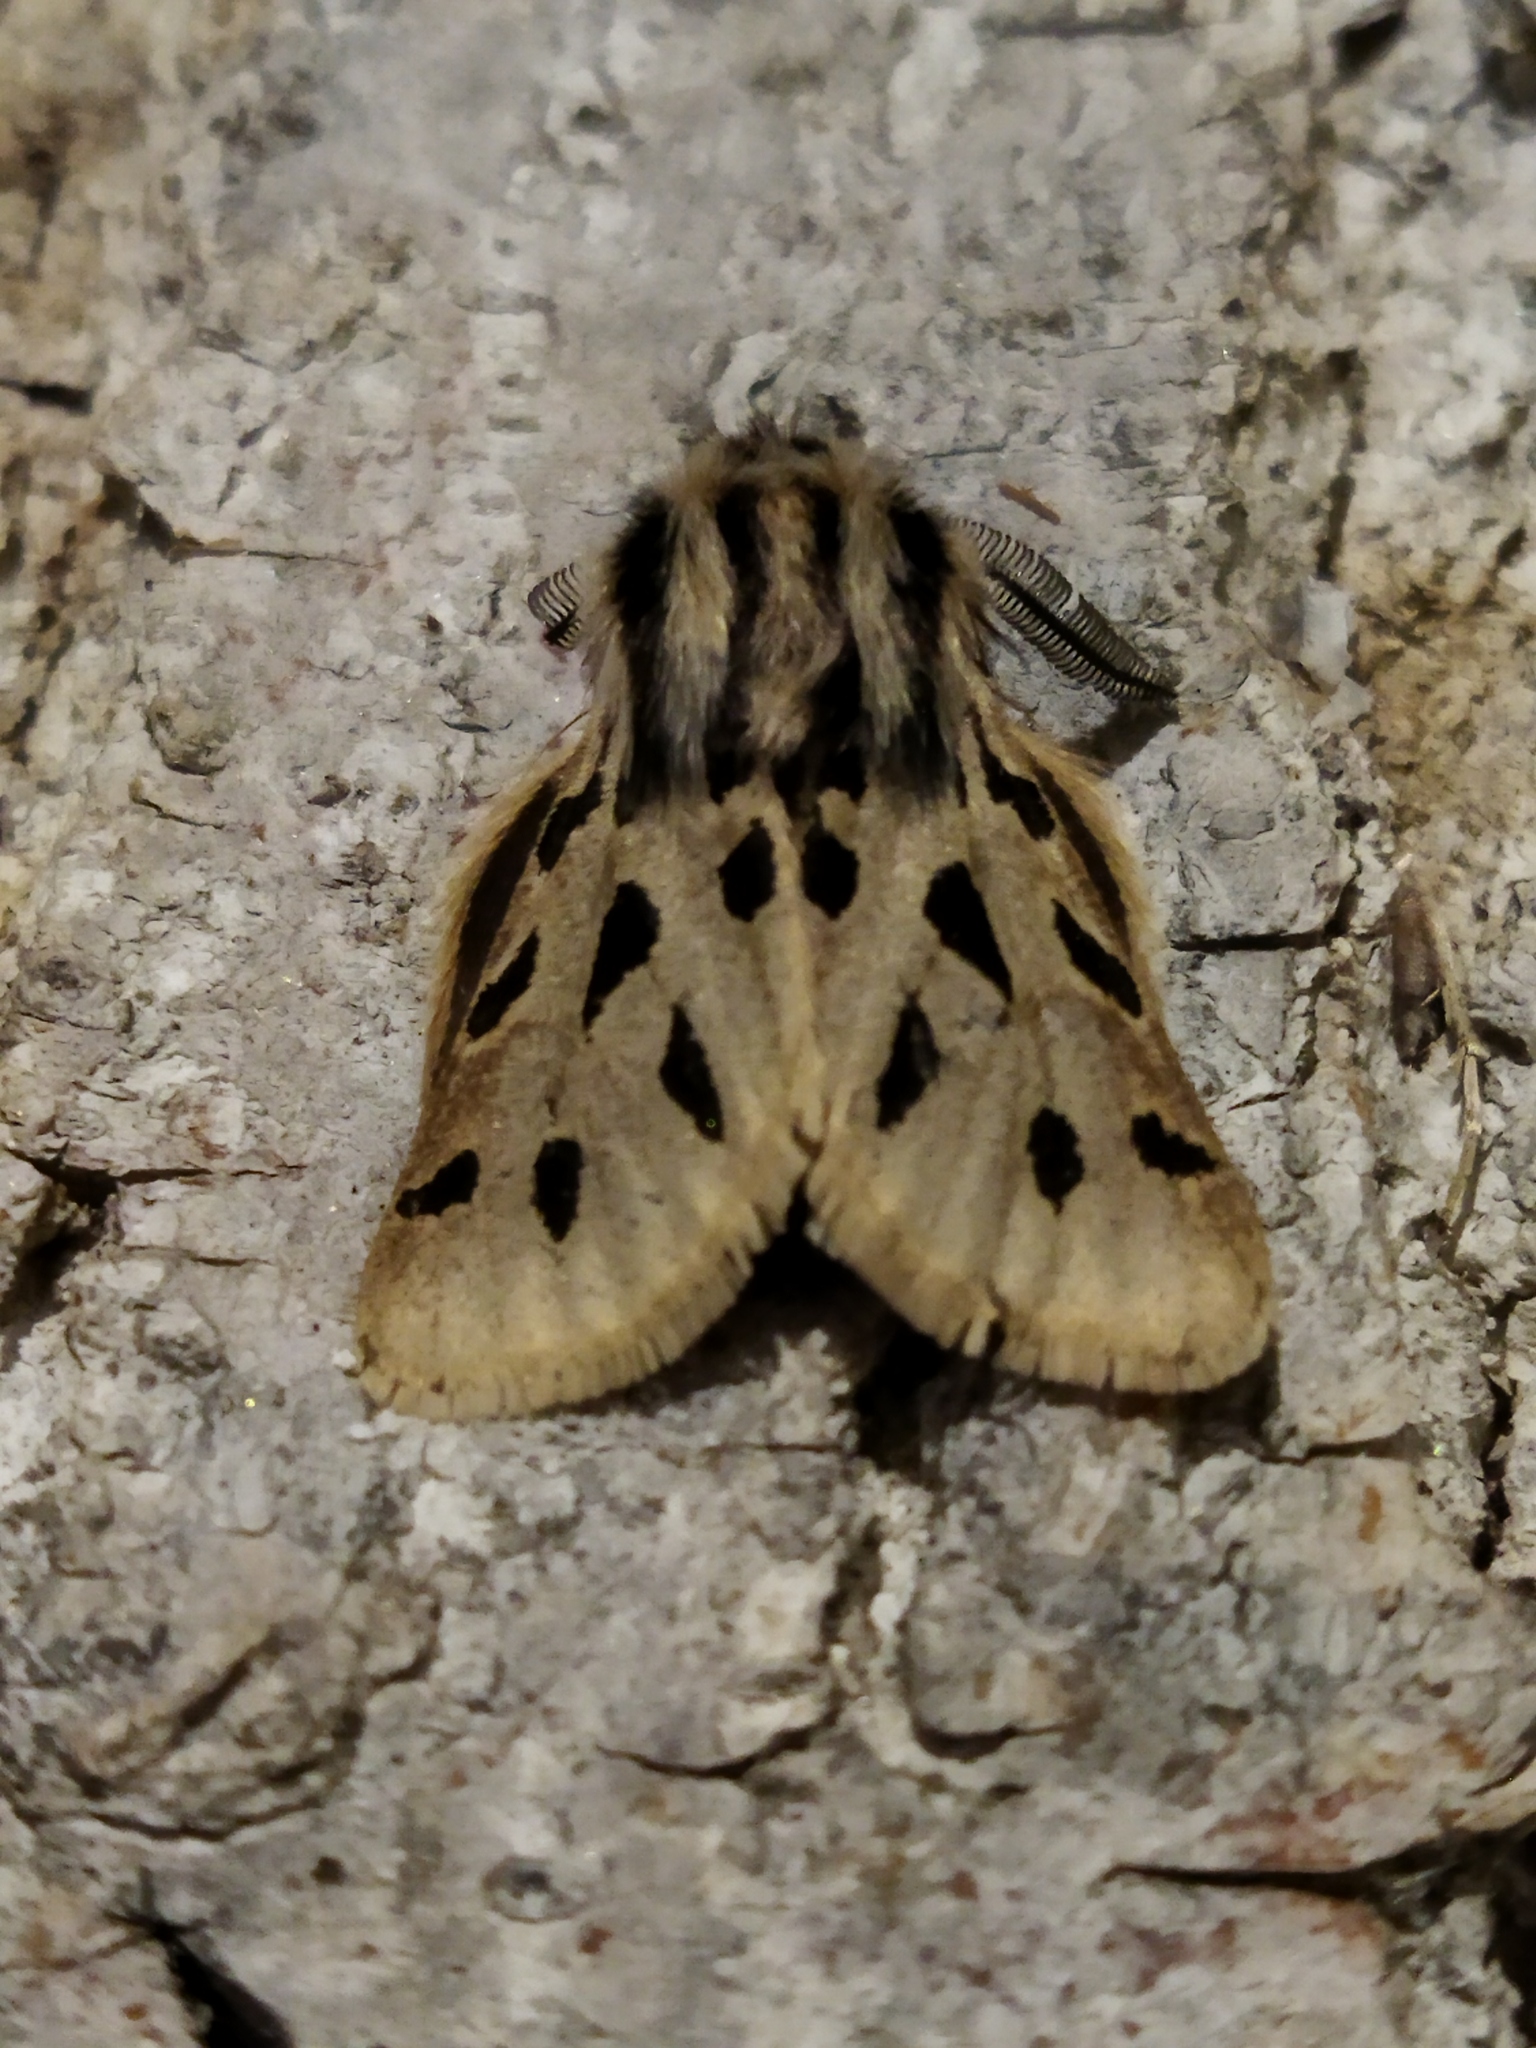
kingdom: Animalia
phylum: Arthropoda
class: Insecta
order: Lepidoptera
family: Erebidae
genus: Ocnogyna
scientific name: Ocnogyna parasita
